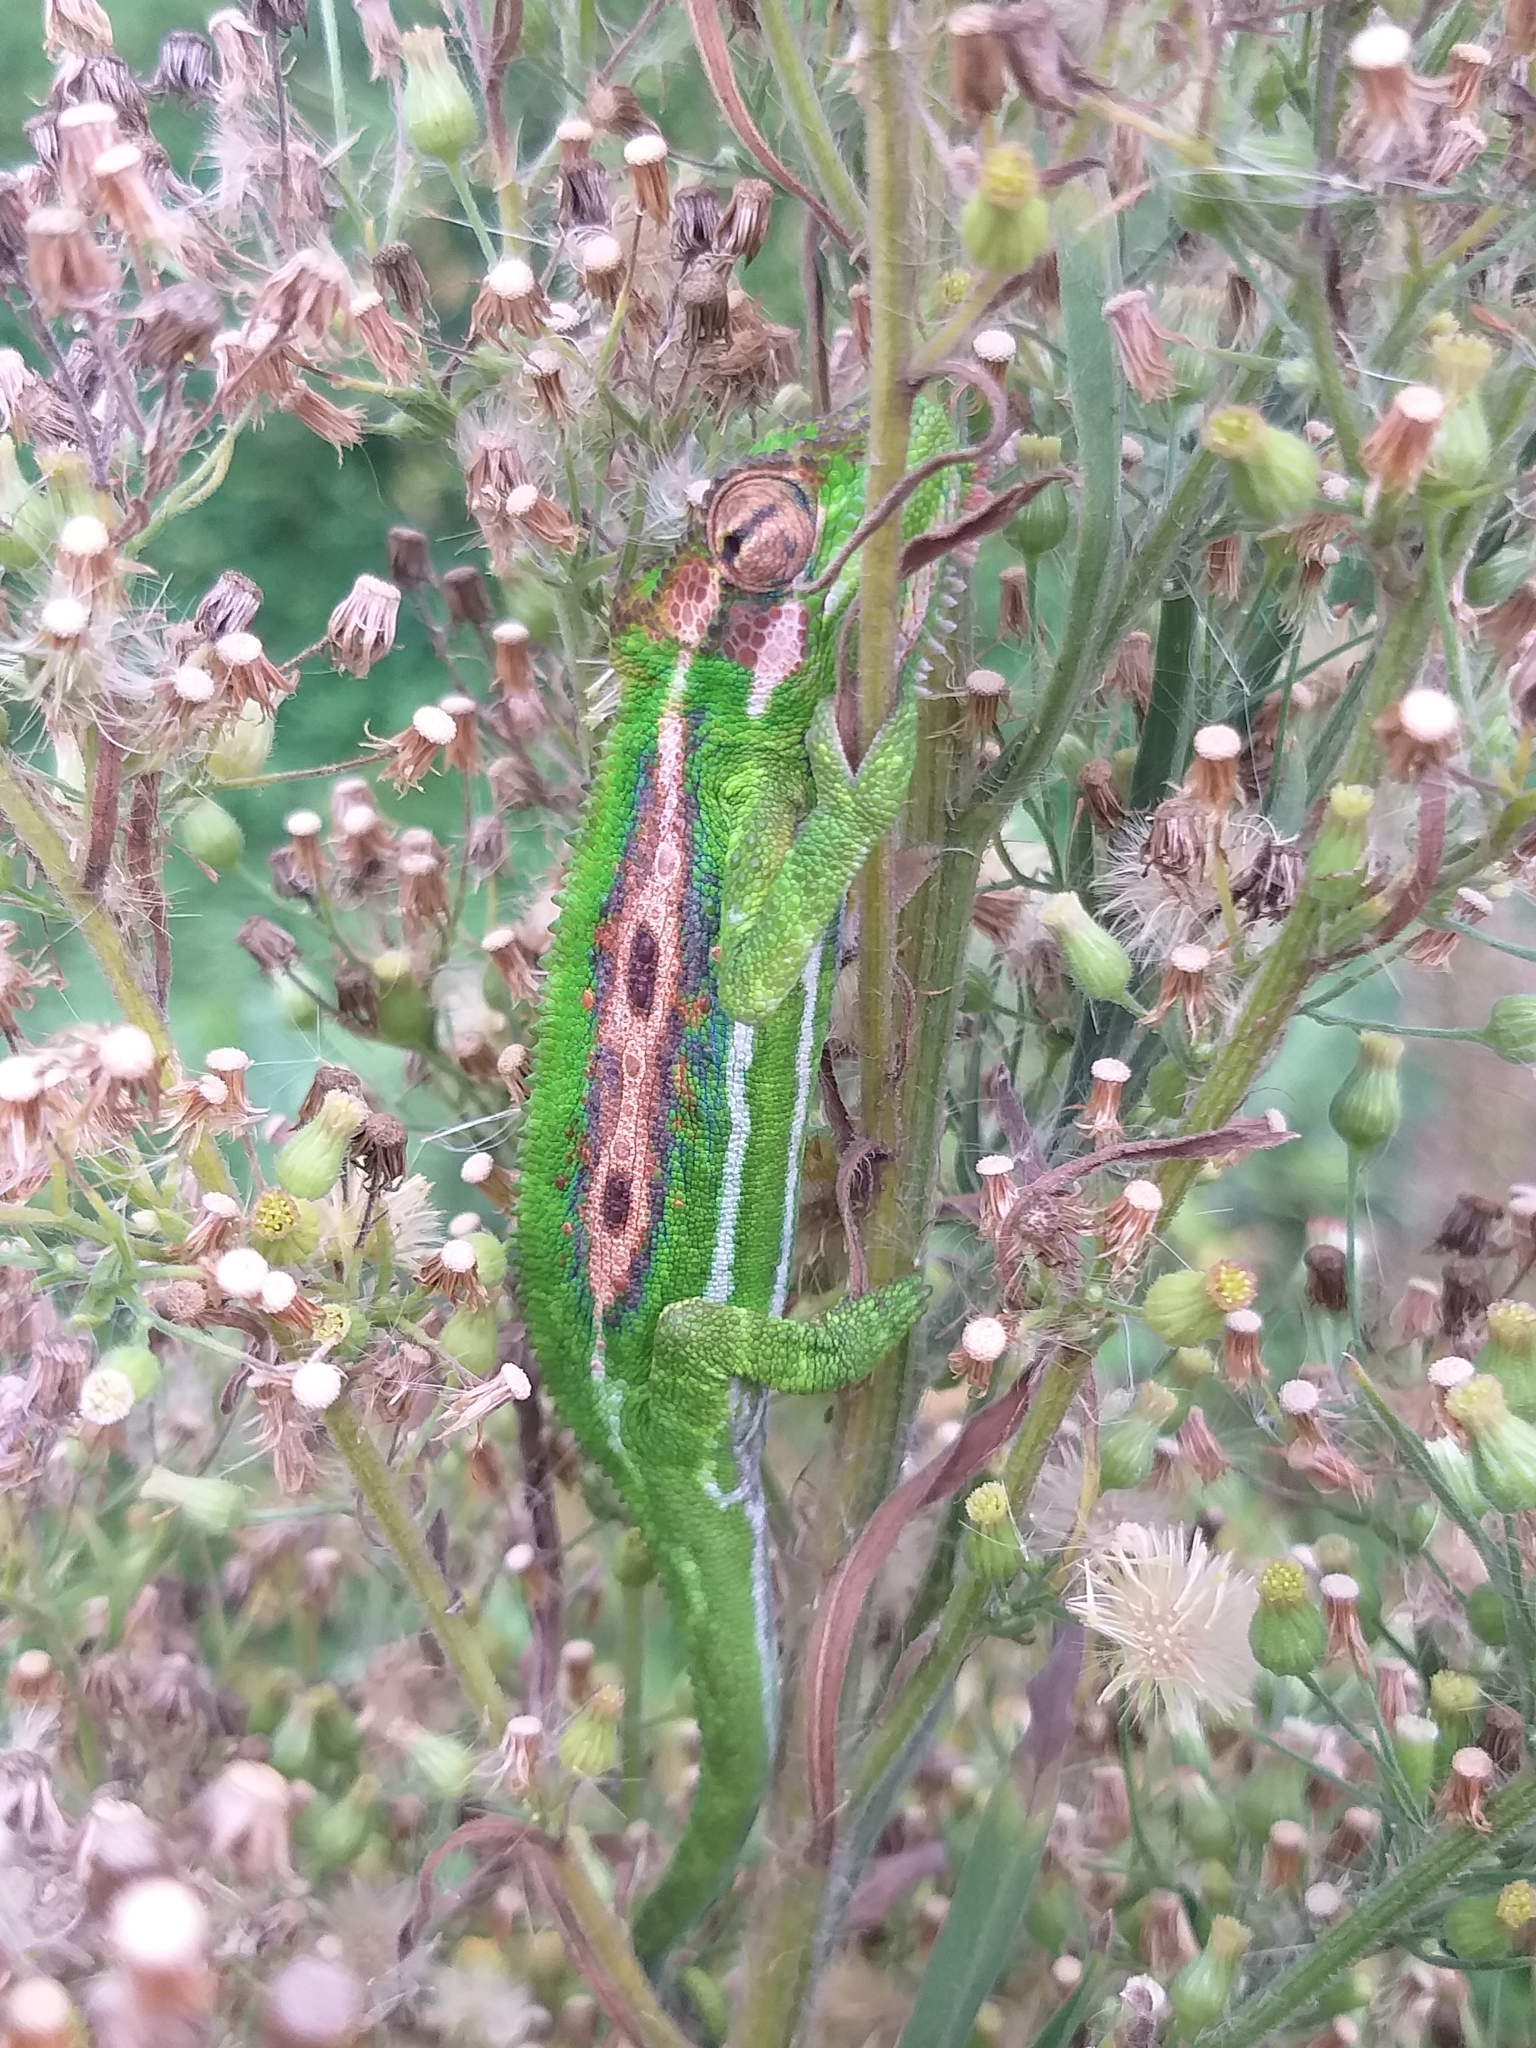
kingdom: Animalia
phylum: Chordata
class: Squamata
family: Chamaeleonidae
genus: Bradypodion
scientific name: Bradypodion pumilum
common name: Cape dwarf chameleon
